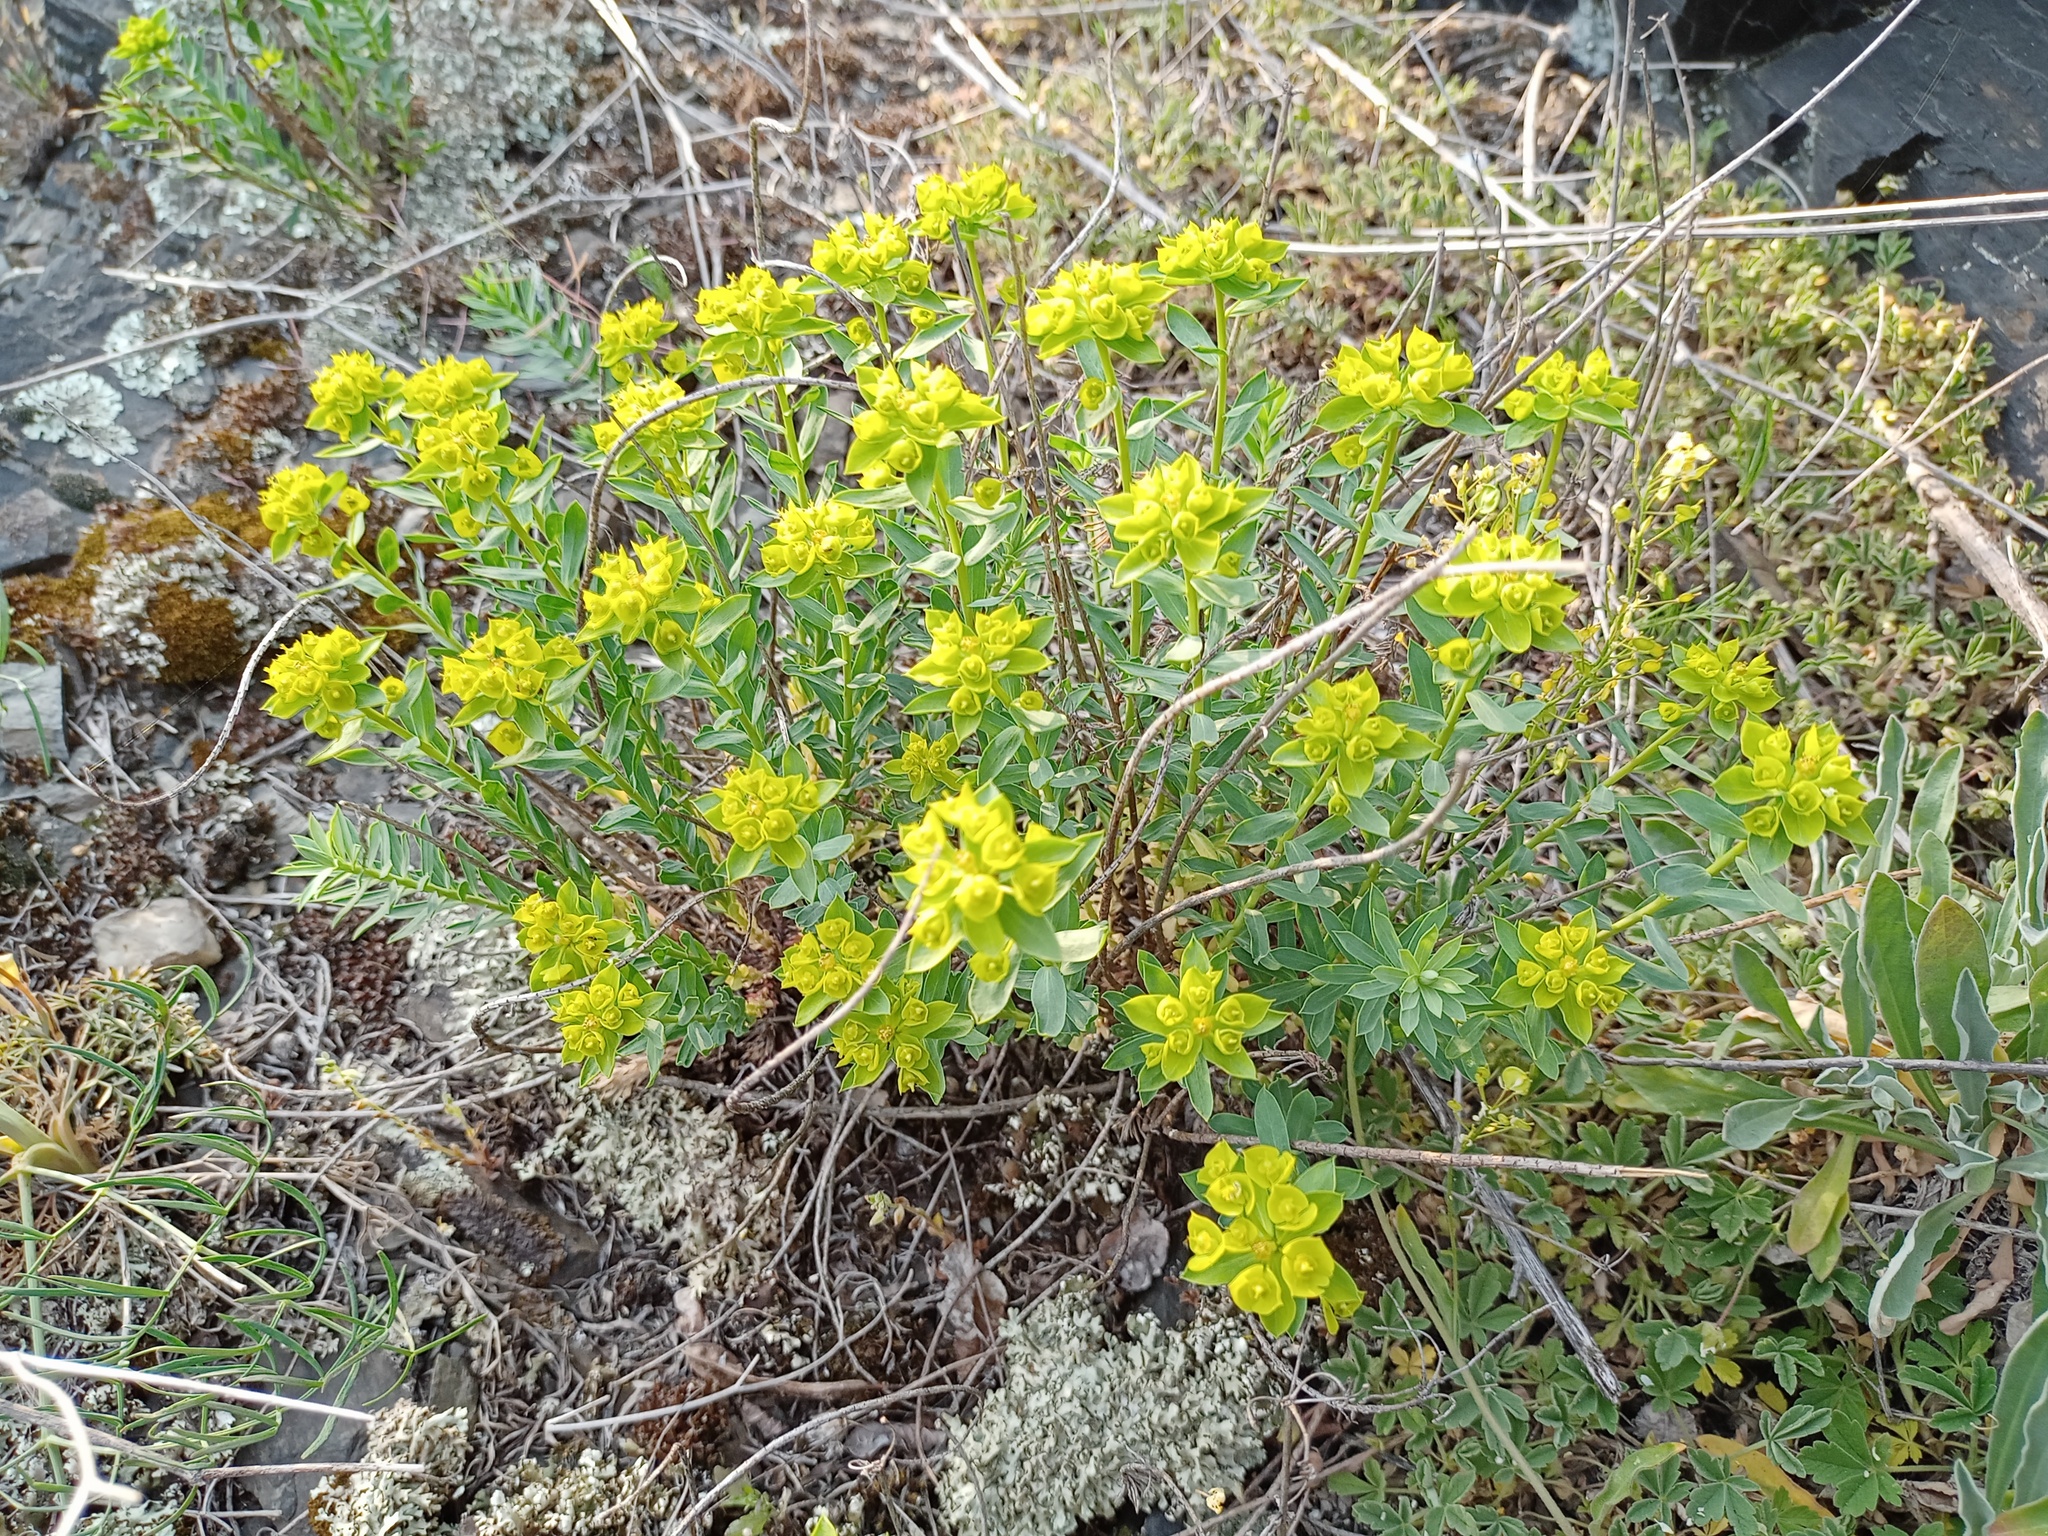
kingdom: Plantae
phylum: Tracheophyta
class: Magnoliopsida
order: Malpighiales
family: Euphorbiaceae
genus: Euphorbia
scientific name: Euphorbia seguieriana
